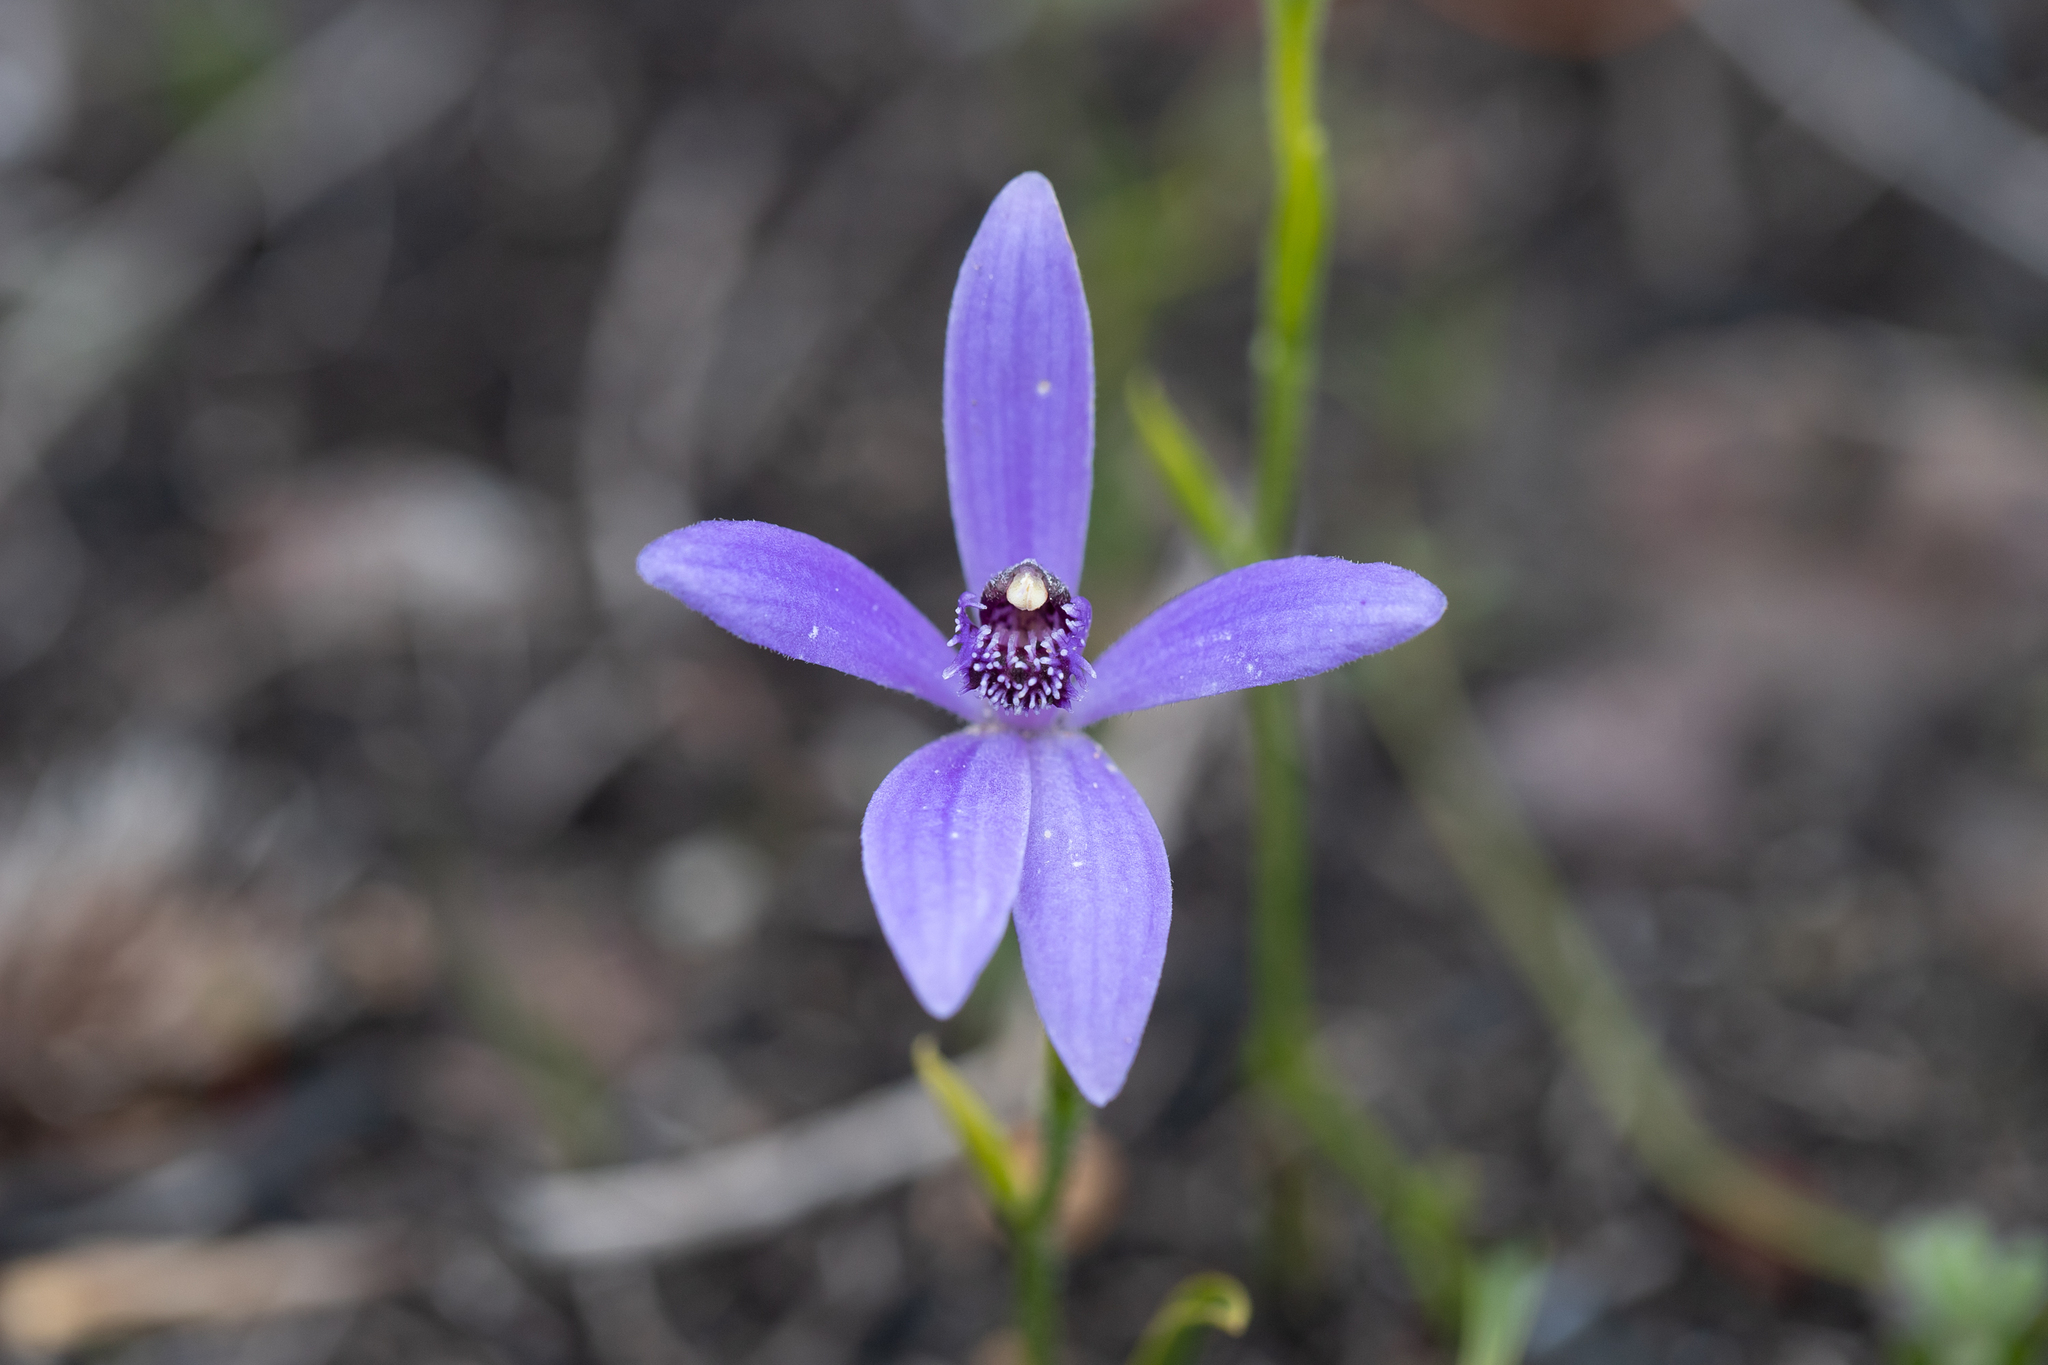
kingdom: Plantae
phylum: Tracheophyta
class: Liliopsida
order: Asparagales
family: Orchidaceae
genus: Pheladenia
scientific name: Pheladenia deformis
